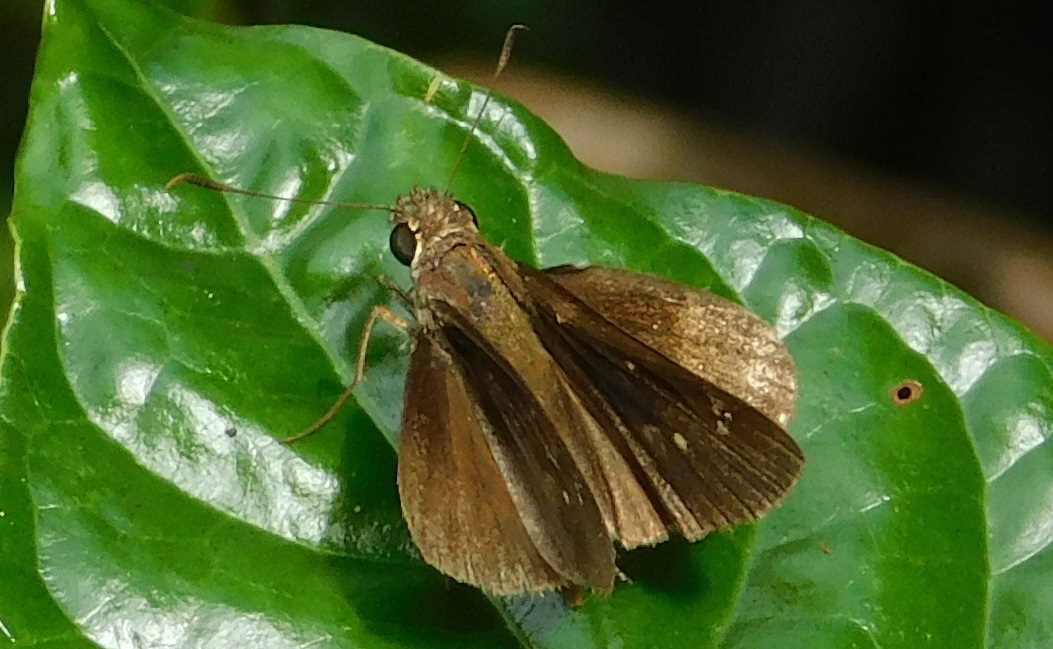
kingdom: Animalia
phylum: Arthropoda
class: Insecta
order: Lepidoptera
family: Hesperiidae
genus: Cymaenes
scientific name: Cymaenes tripunctus
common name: Dingy dotted skipper
